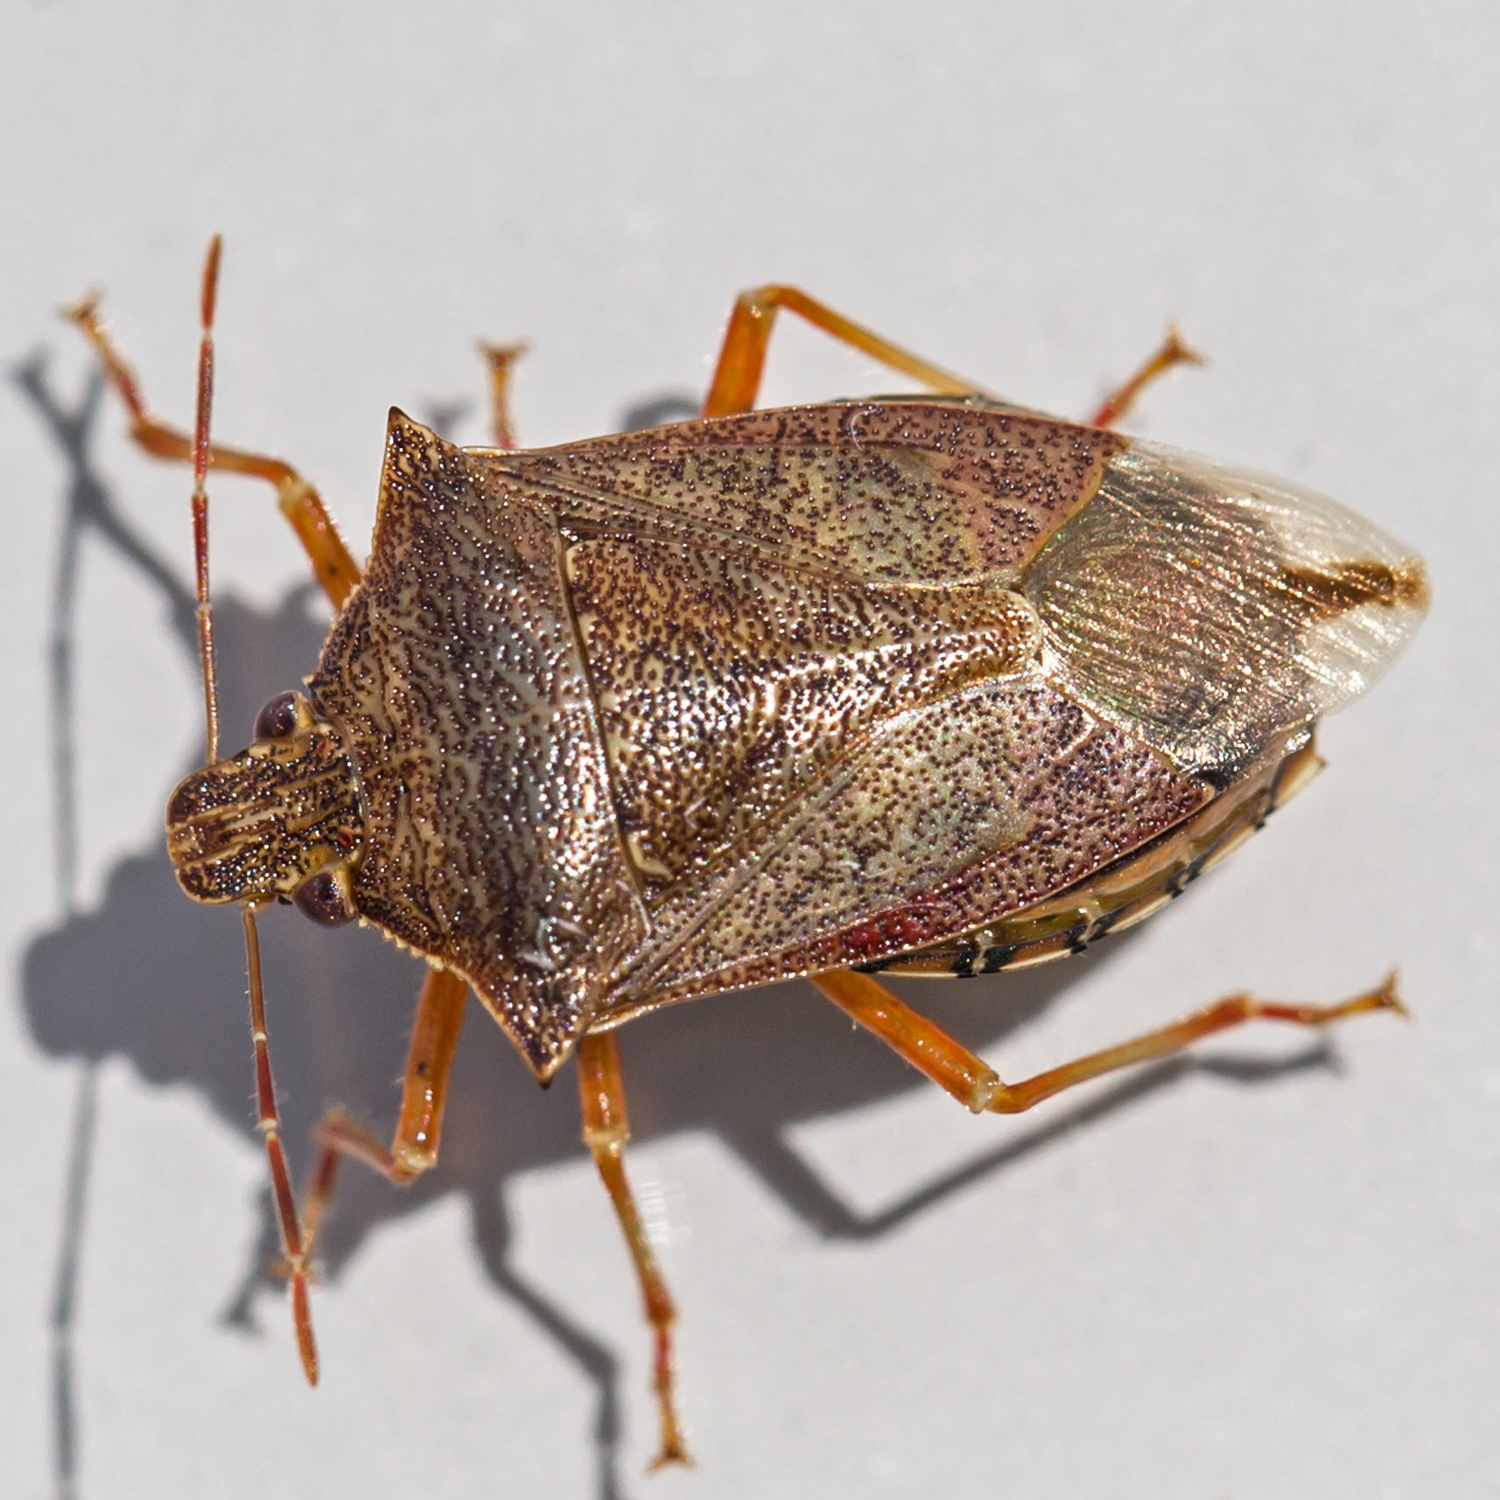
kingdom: Animalia
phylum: Arthropoda
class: Insecta
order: Hemiptera
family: Pentatomidae
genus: Podisus
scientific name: Podisus maculiventris
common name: Spined soldier bug
